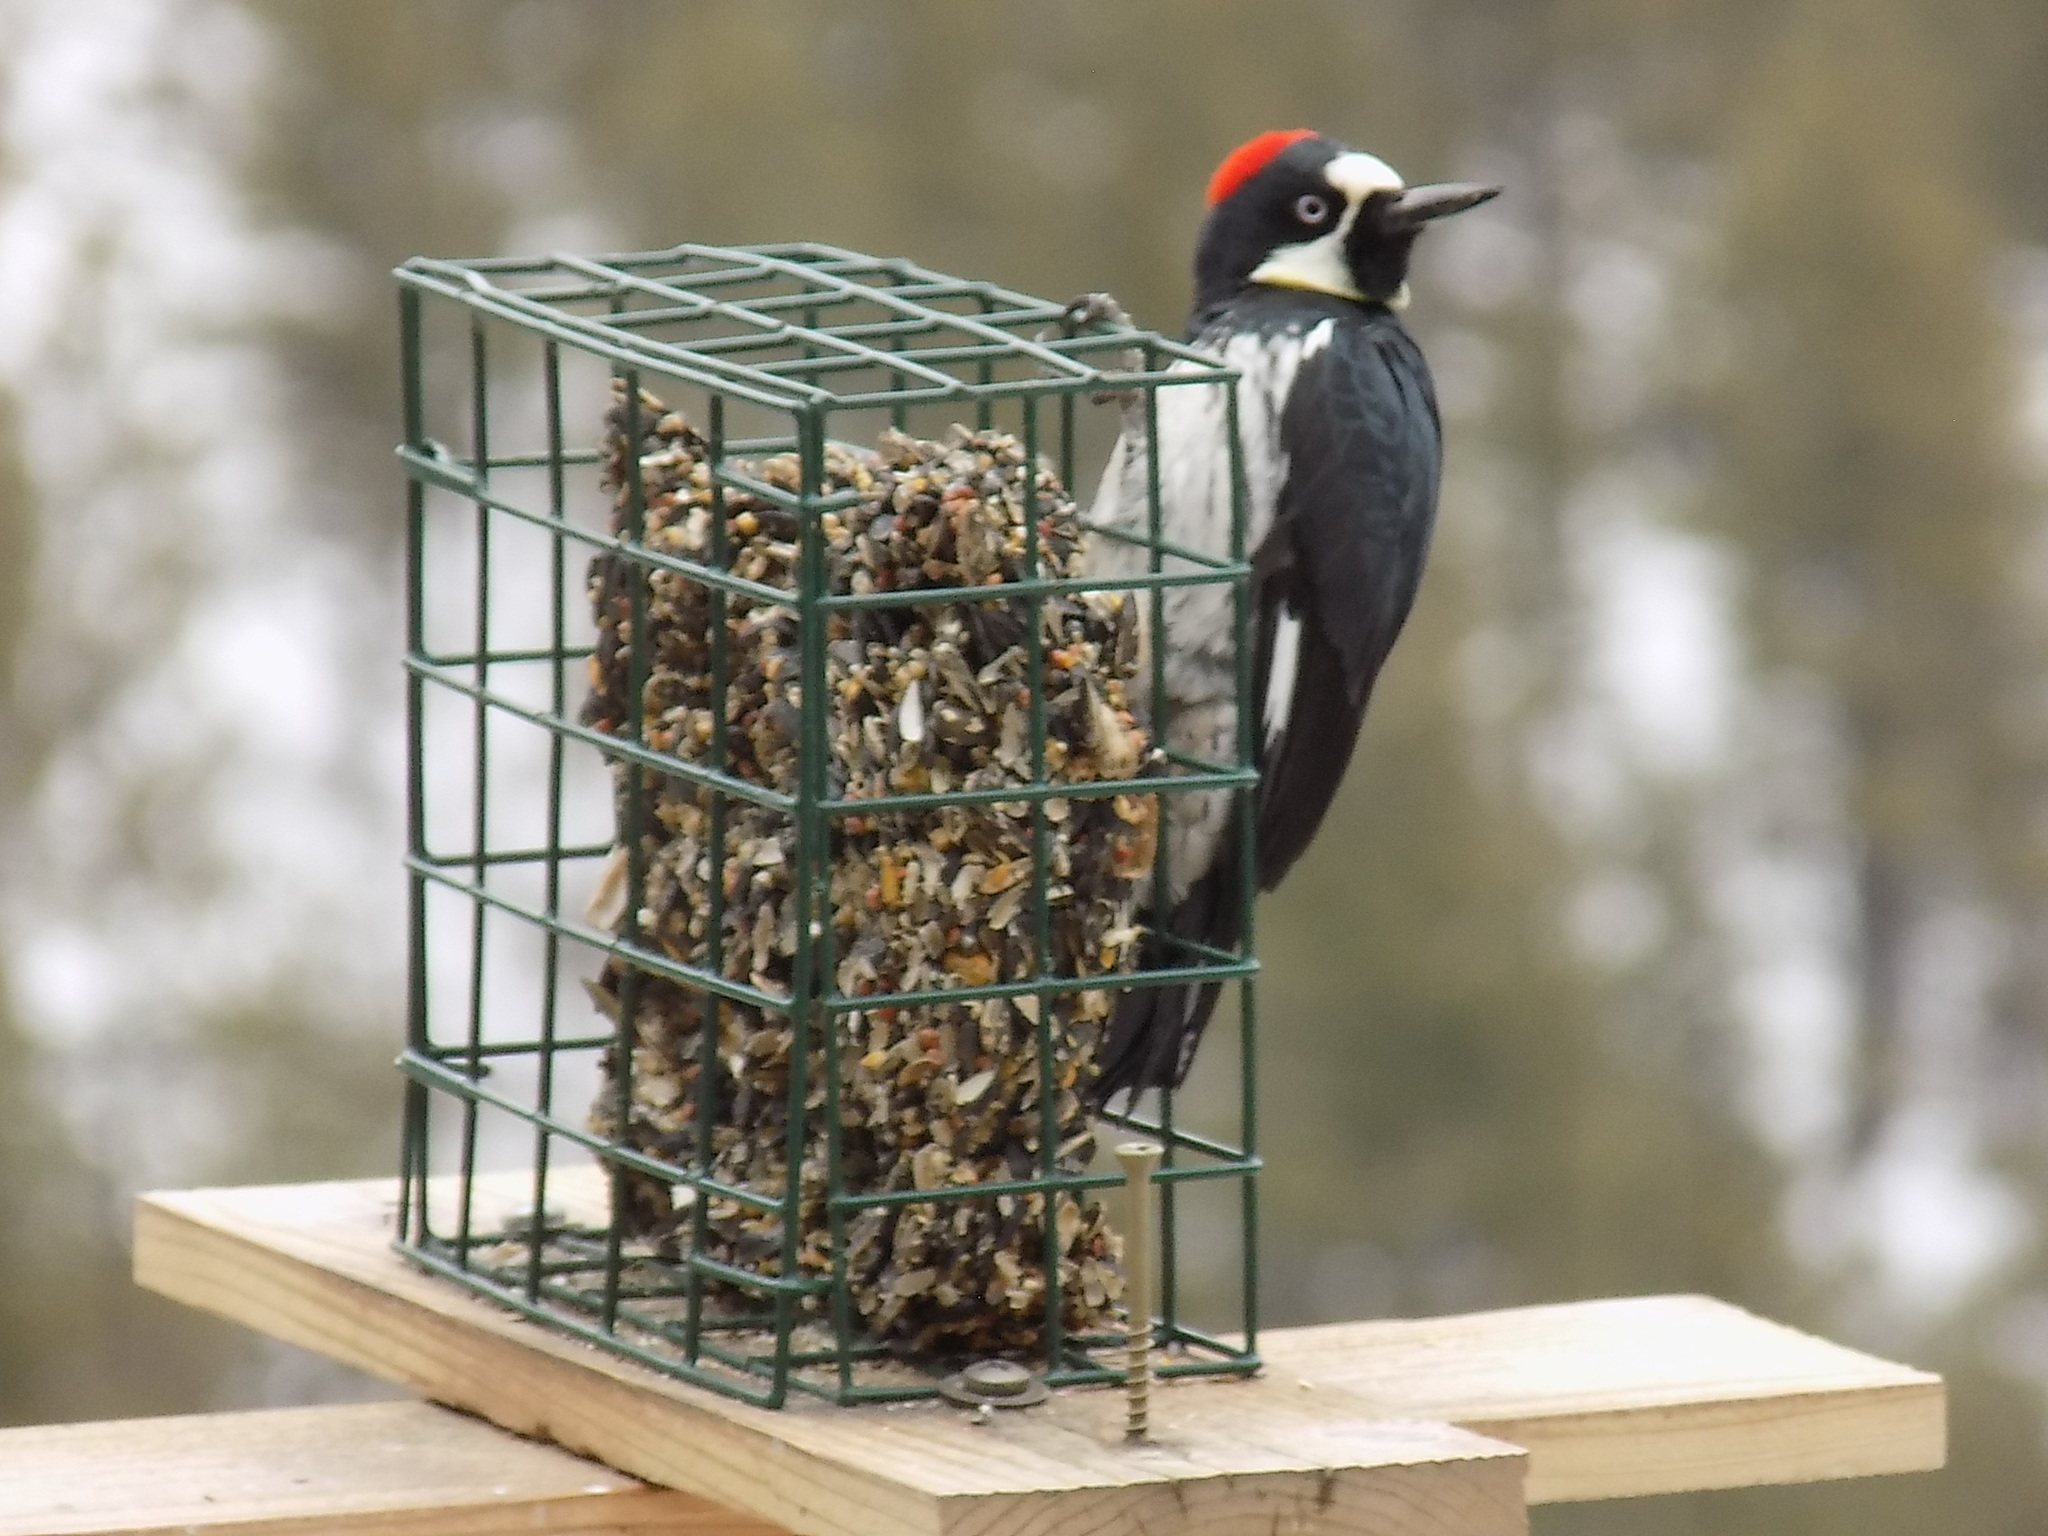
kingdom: Animalia
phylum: Chordata
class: Aves
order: Piciformes
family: Picidae
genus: Melanerpes
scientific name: Melanerpes formicivorus
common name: Acorn woodpecker
